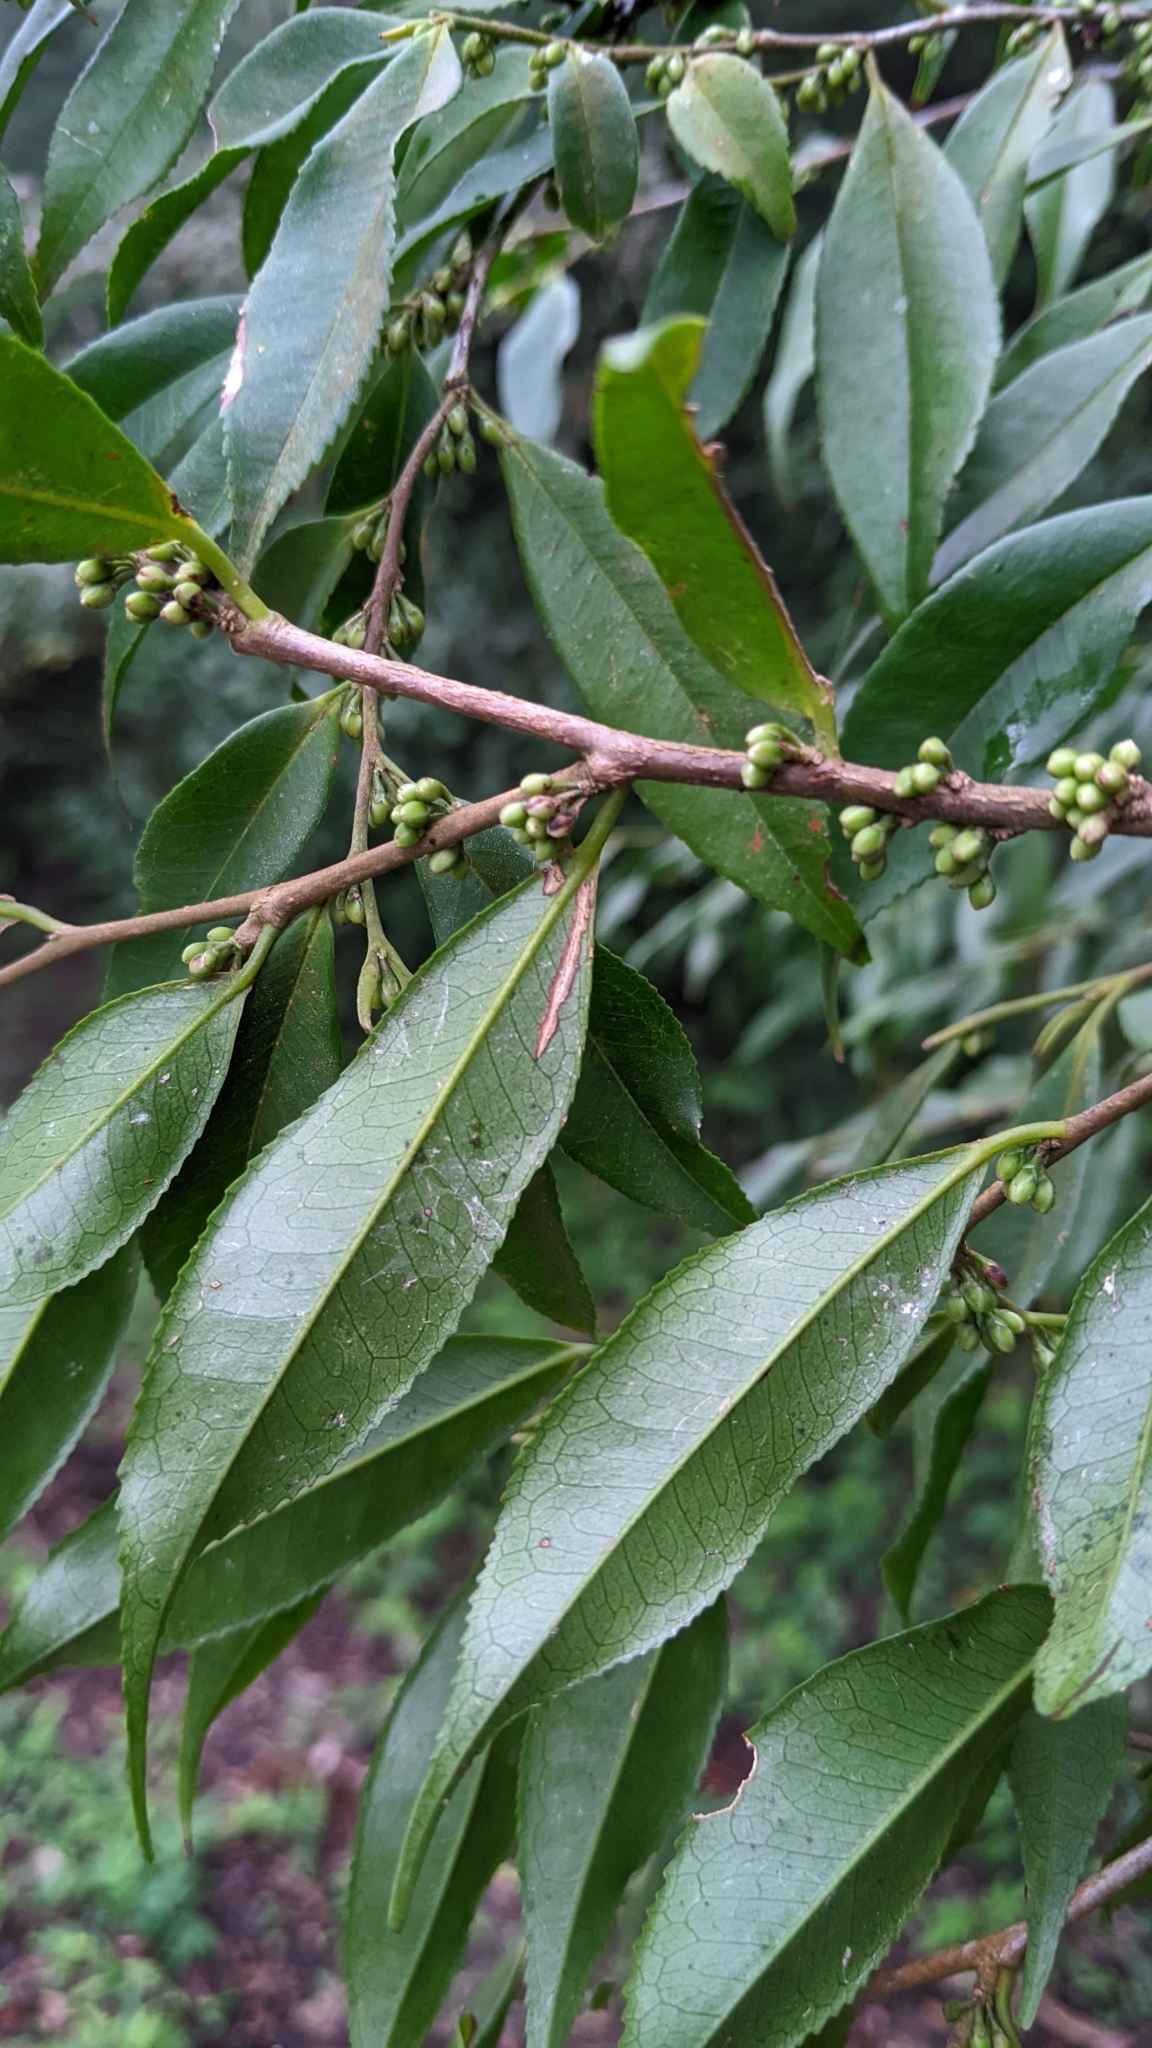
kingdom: Plantae
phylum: Tracheophyta
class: Magnoliopsida
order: Ericales
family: Pentaphylacaceae
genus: Eurya
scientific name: Eurya loquaiana
